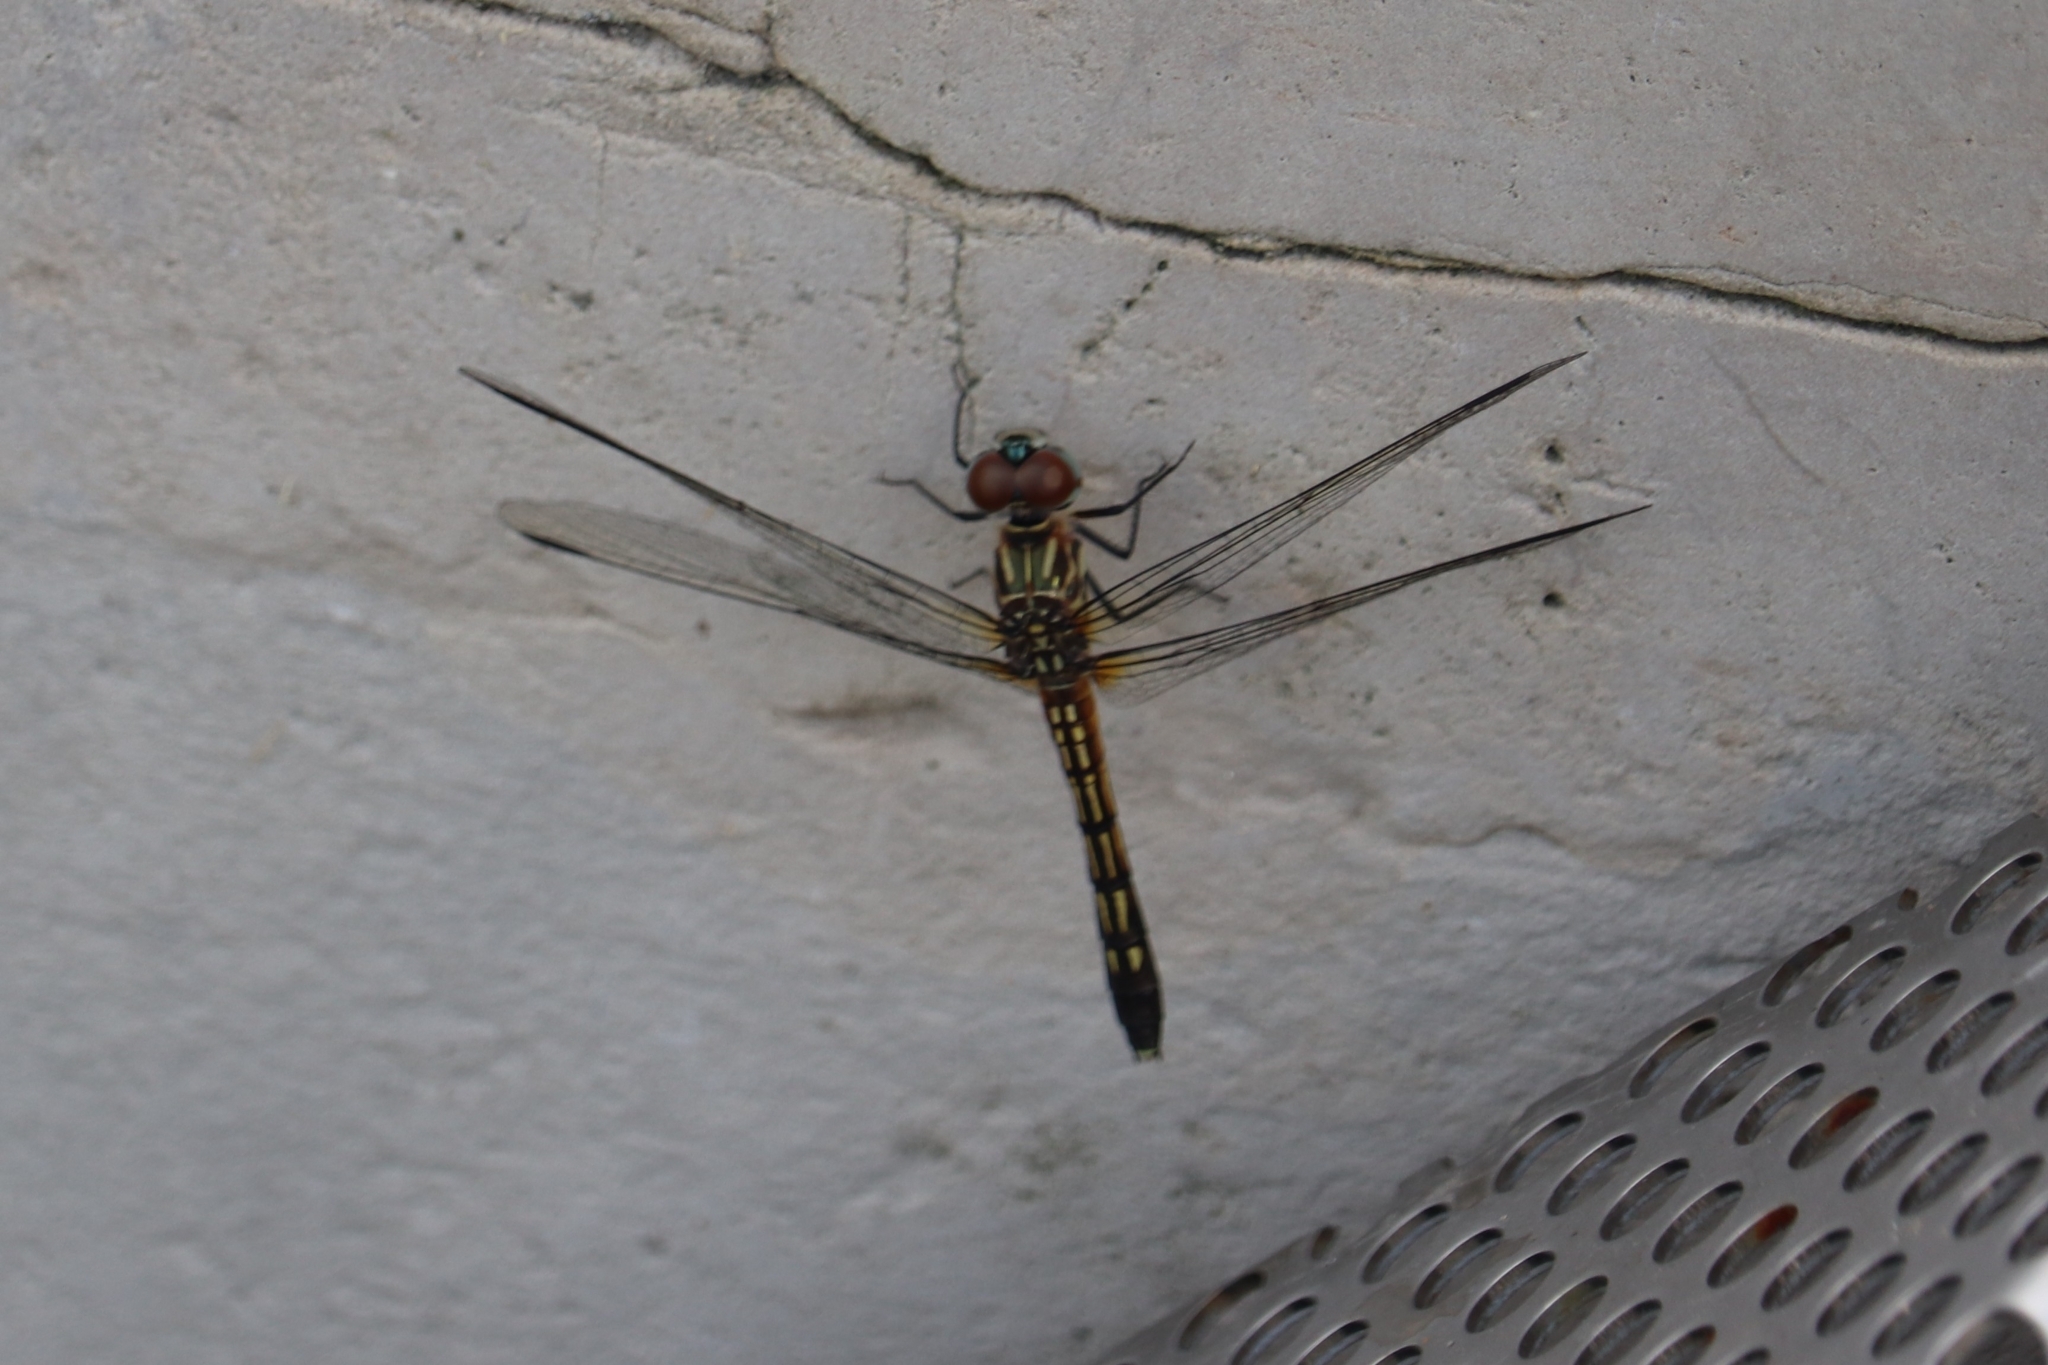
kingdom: Animalia
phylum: Arthropoda
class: Insecta
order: Odonata
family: Libellulidae
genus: Pachydiplax
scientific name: Pachydiplax longipennis
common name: Blue dasher
